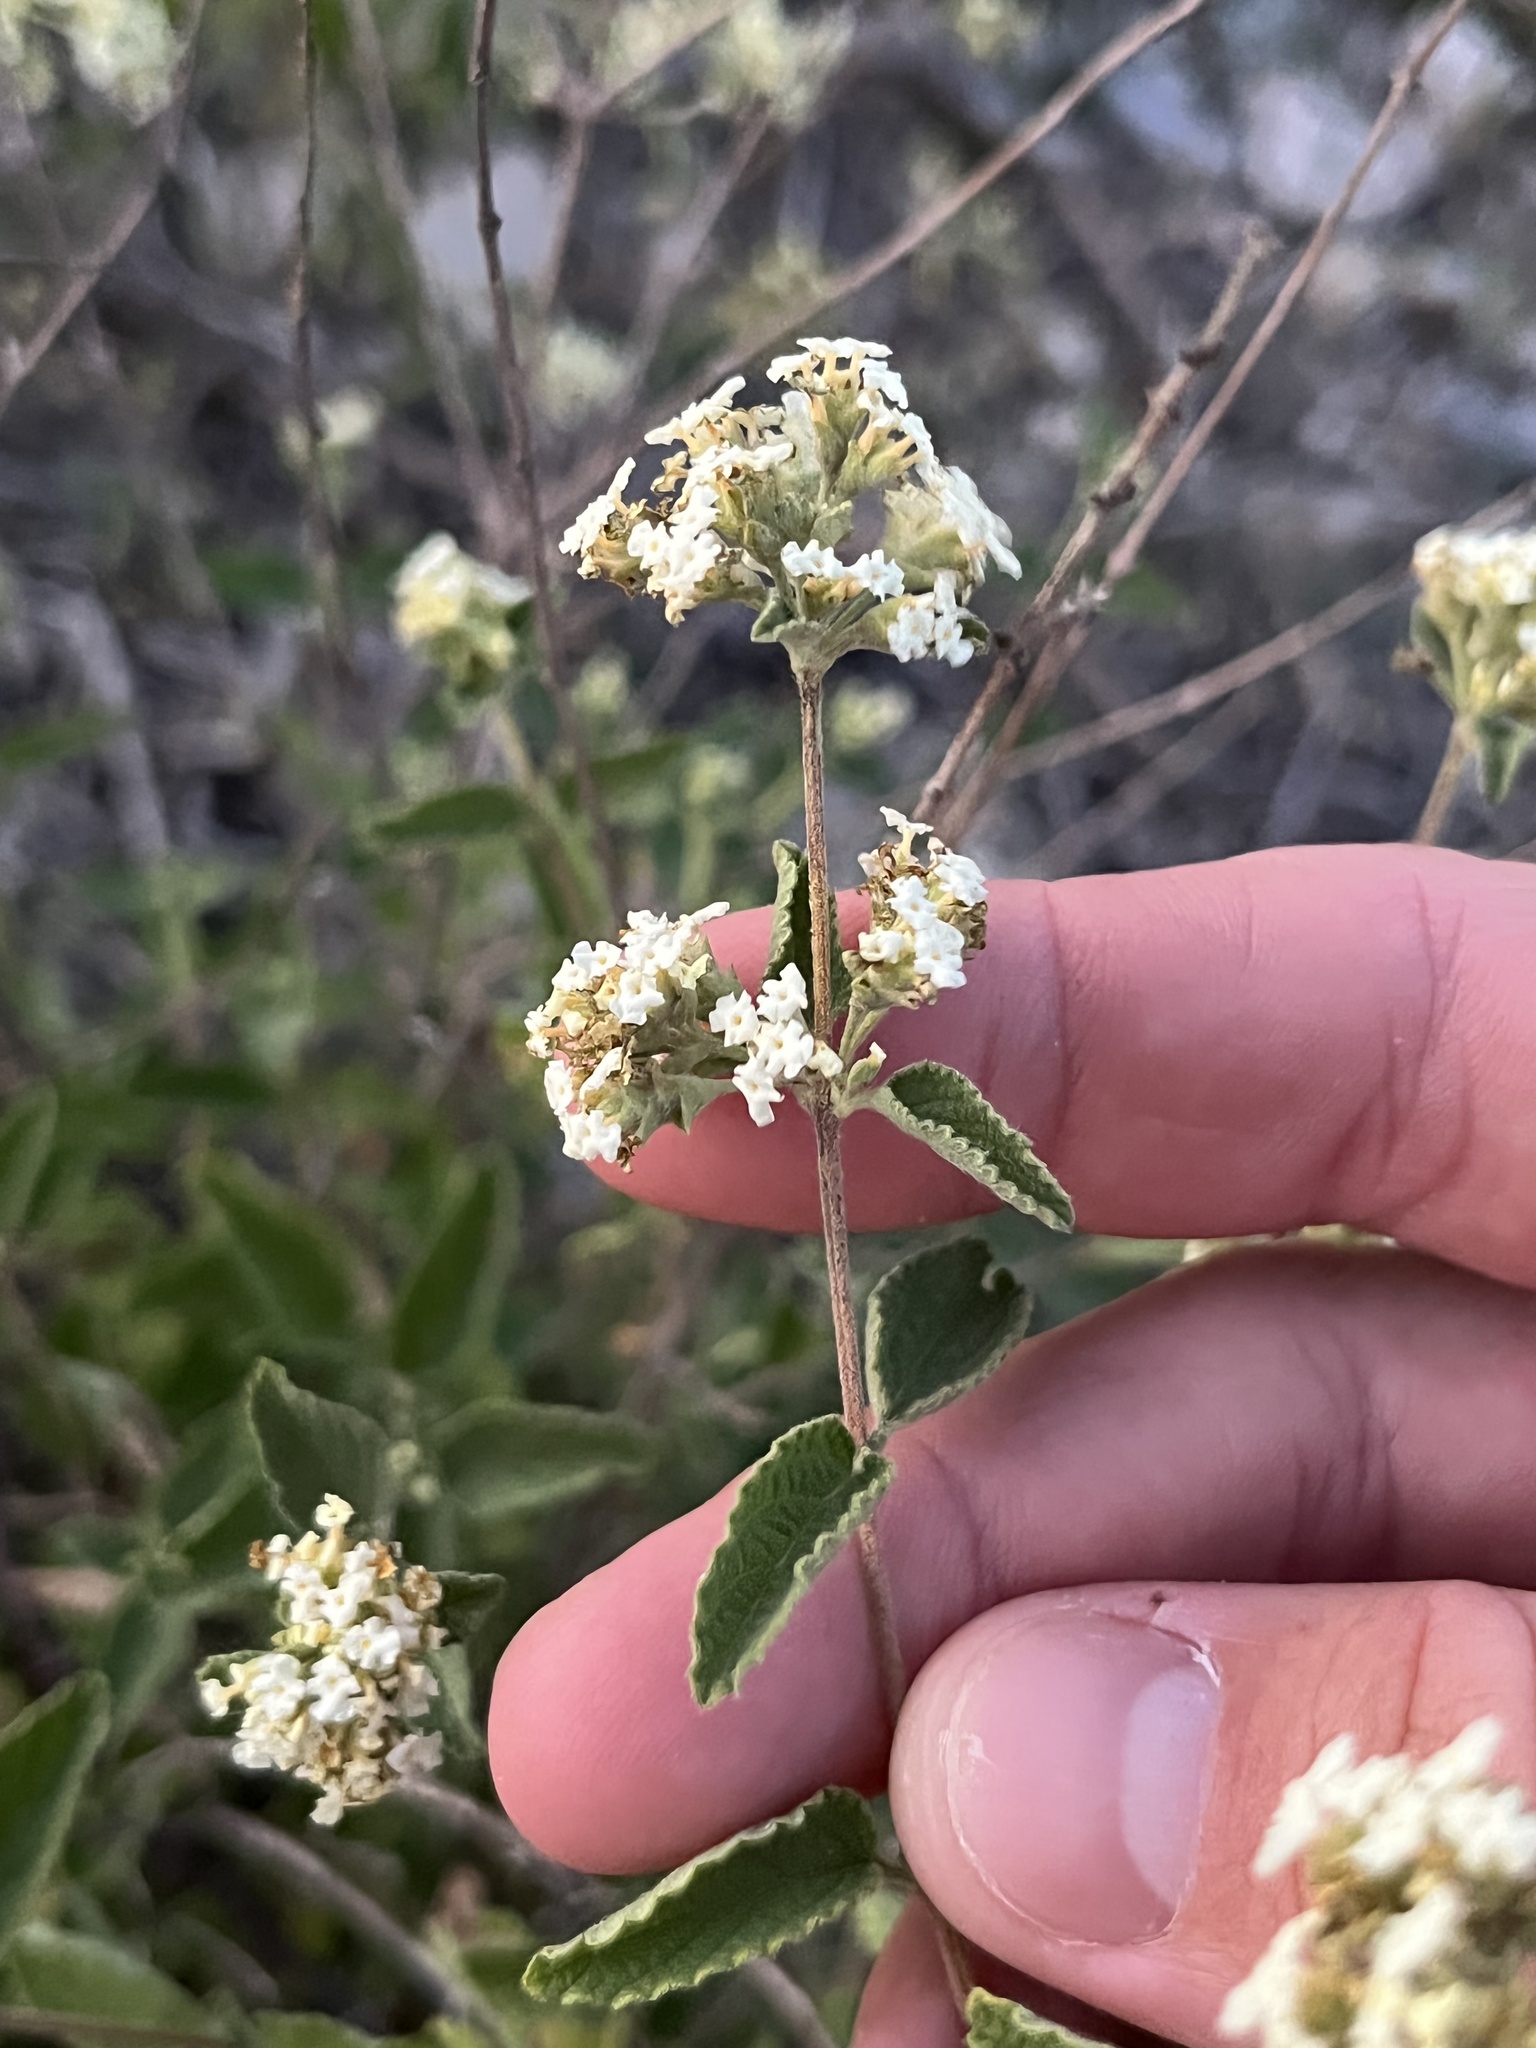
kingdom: Plantae
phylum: Tracheophyta
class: Magnoliopsida
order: Lamiales
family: Verbenaceae
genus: Lippia
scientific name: Lippia origanoides
